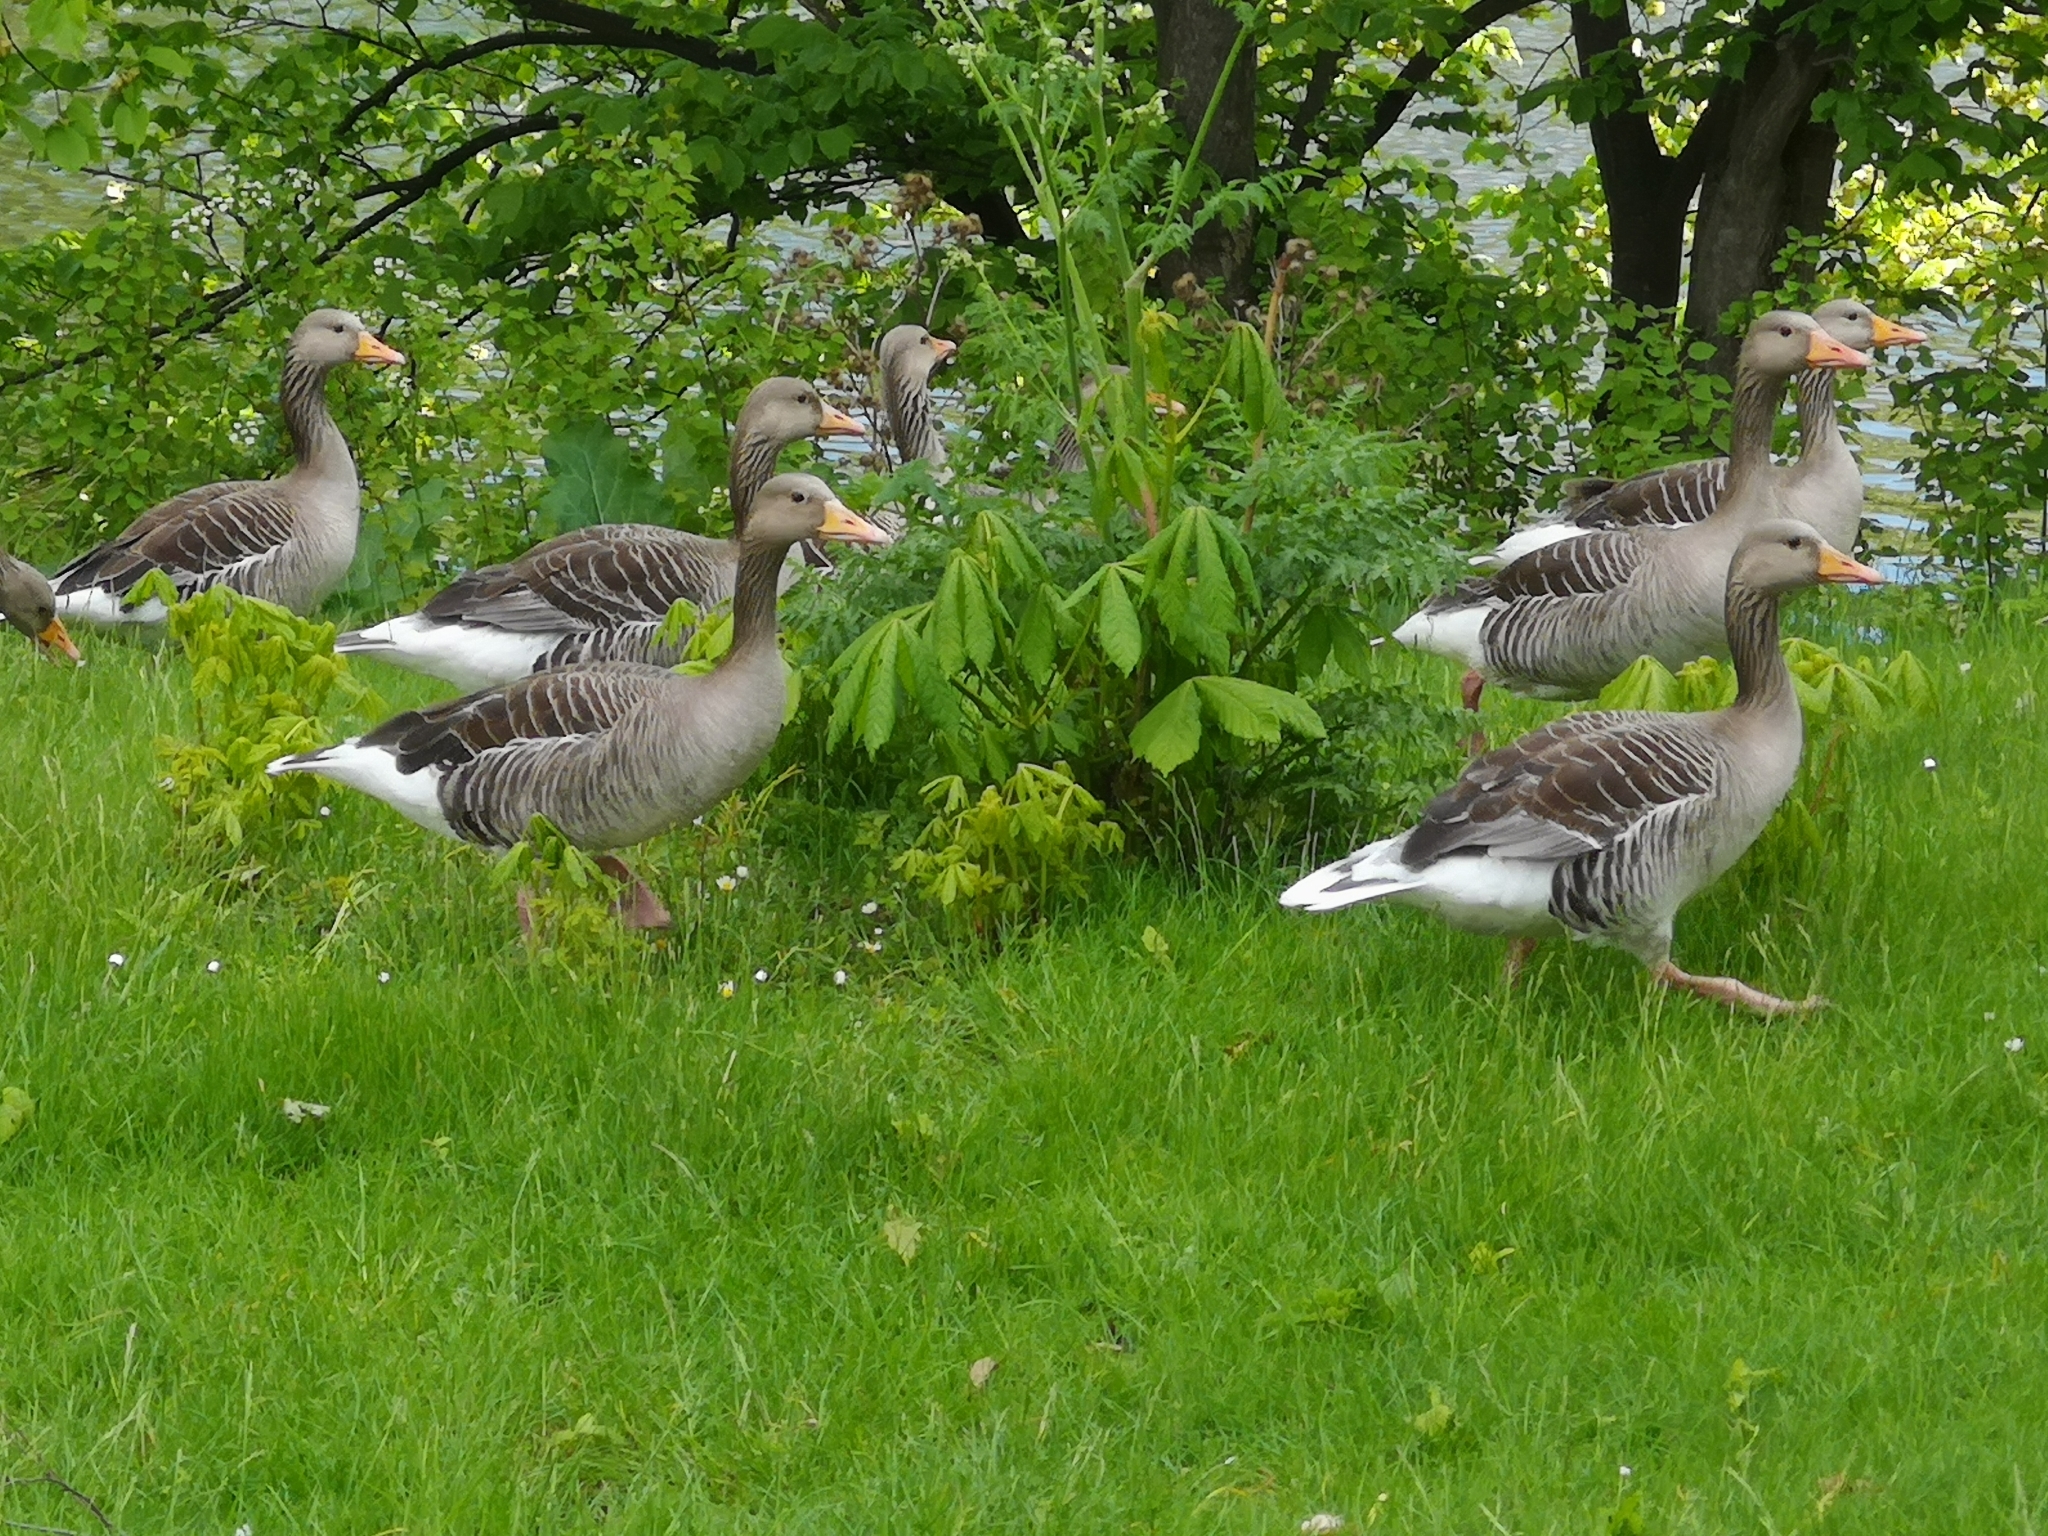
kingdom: Animalia
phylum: Chordata
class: Aves
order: Anseriformes
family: Anatidae
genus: Anser
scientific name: Anser anser
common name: Greylag goose
